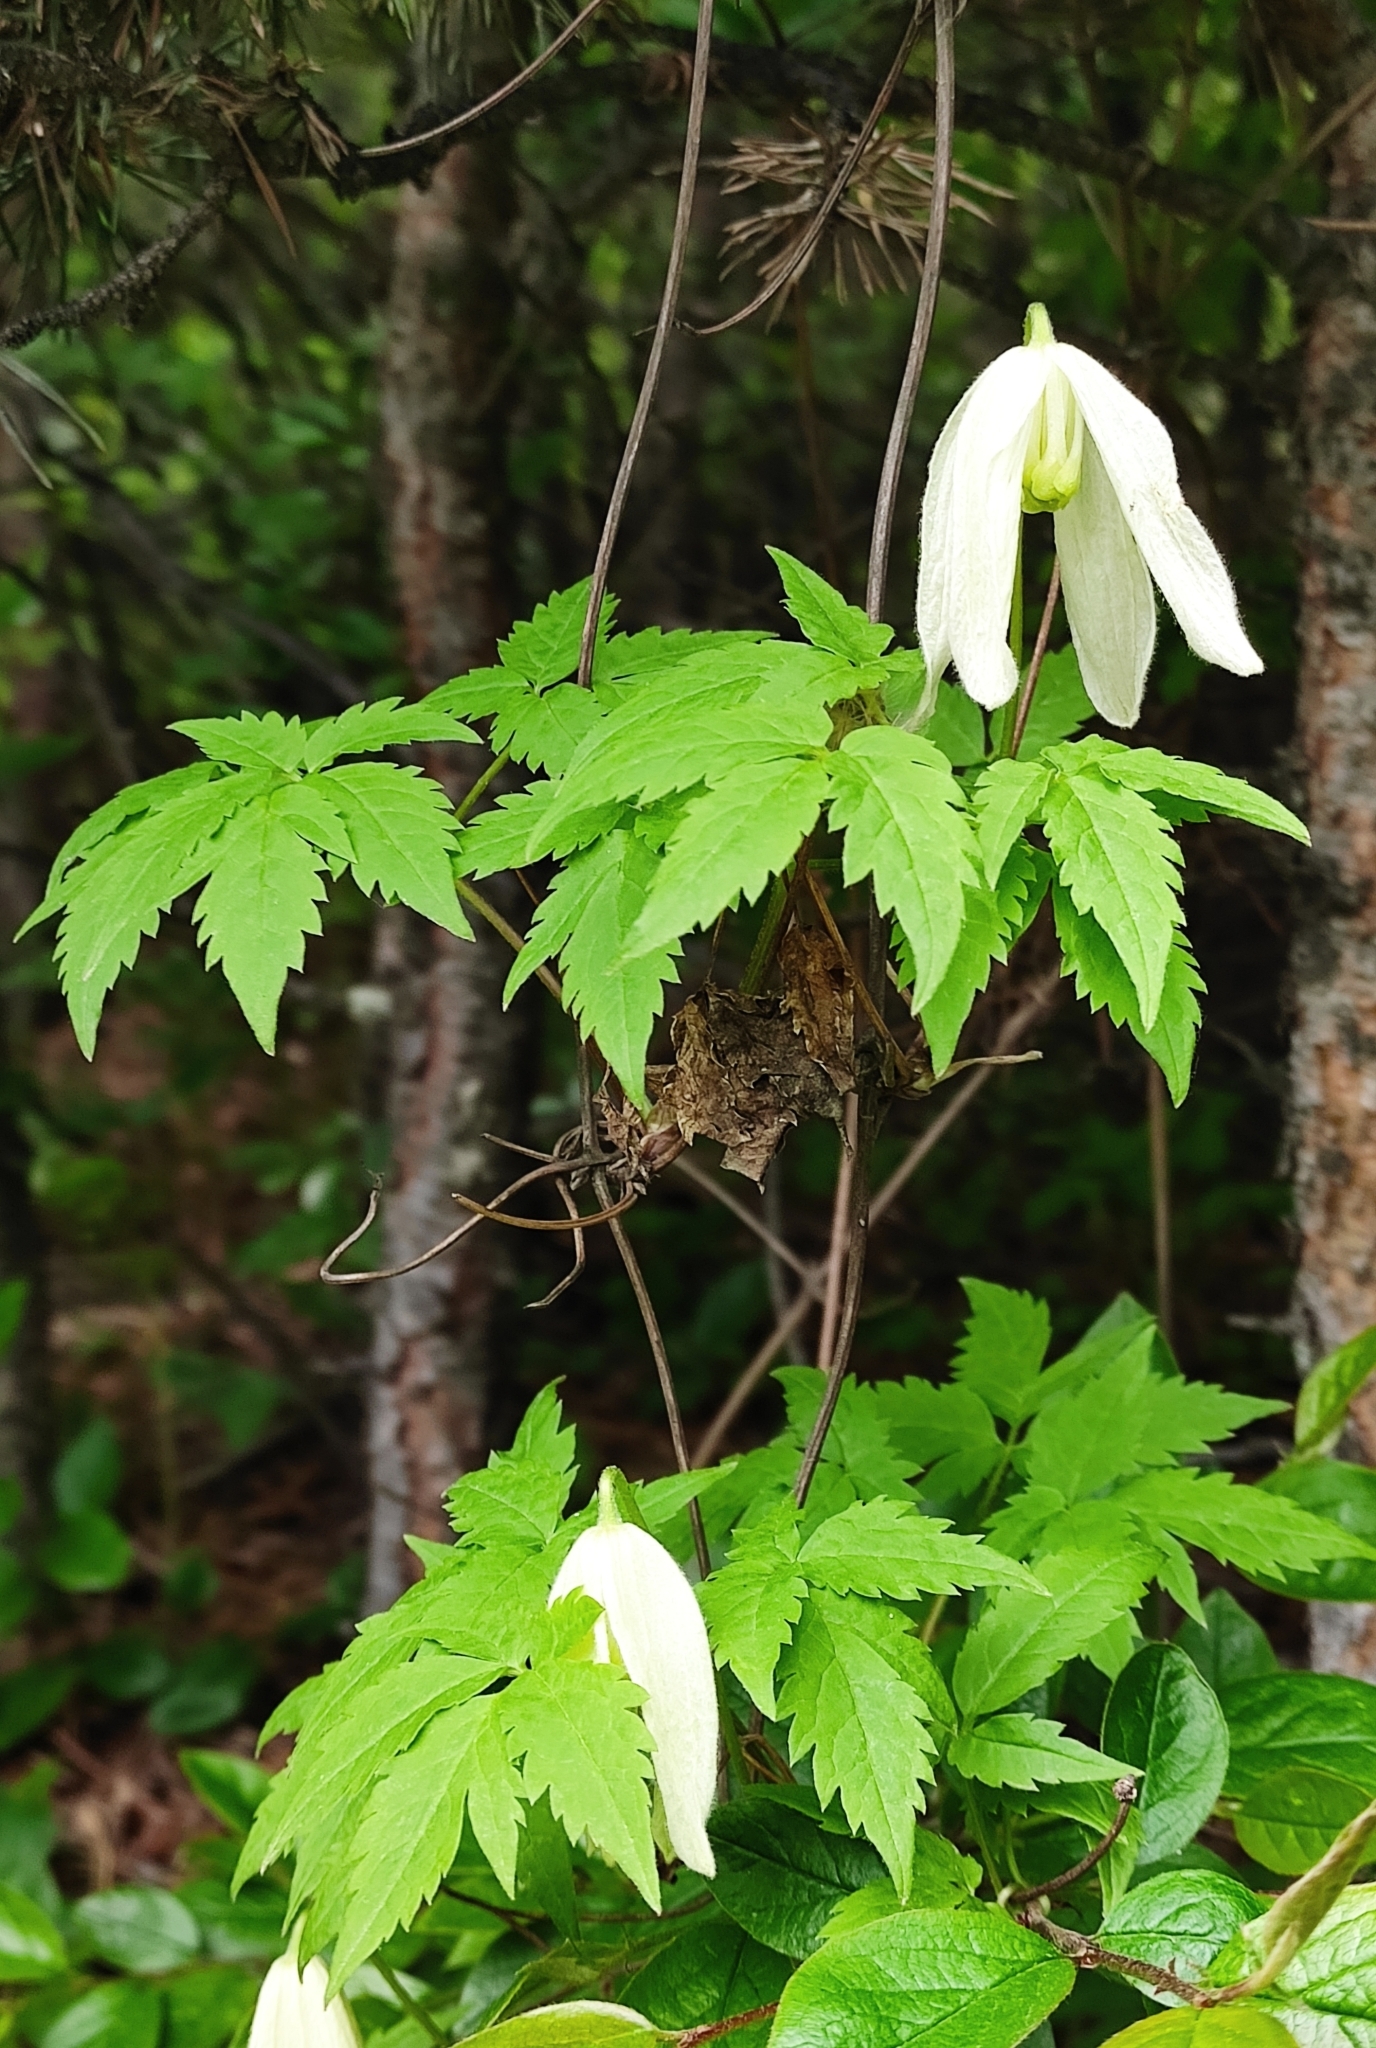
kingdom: Plantae
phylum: Tracheophyta
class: Magnoliopsida
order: Ranunculales
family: Ranunculaceae
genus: Clematis
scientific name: Clematis sibirica
